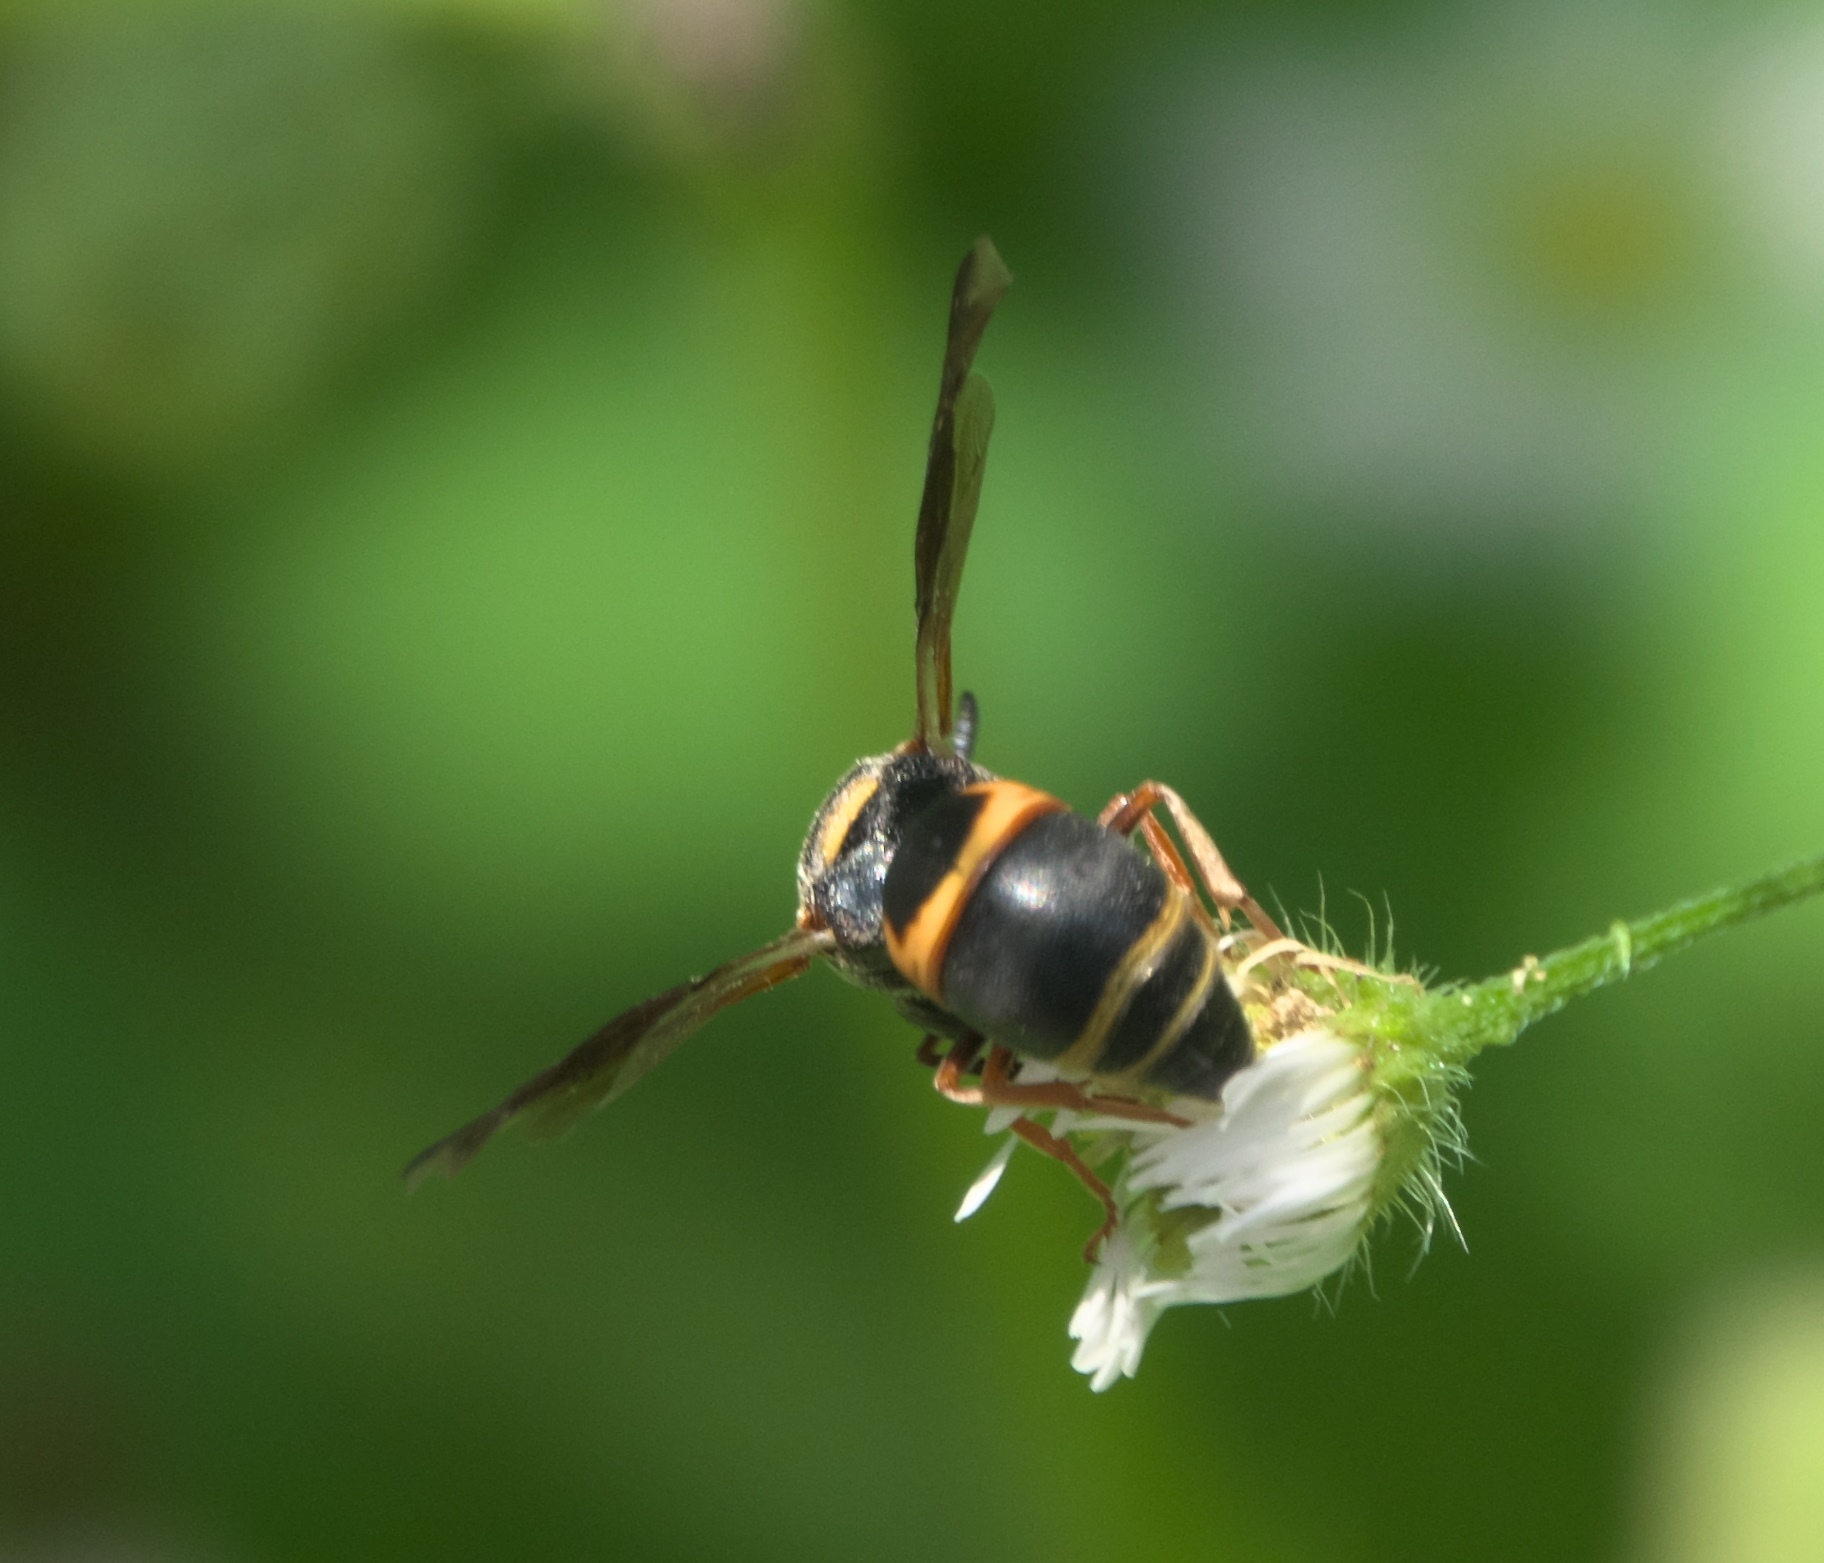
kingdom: Animalia
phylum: Arthropoda
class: Insecta
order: Hymenoptera
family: Eumenidae
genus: Euodynerus
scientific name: Euodynerus hidalgo
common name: Wasp
